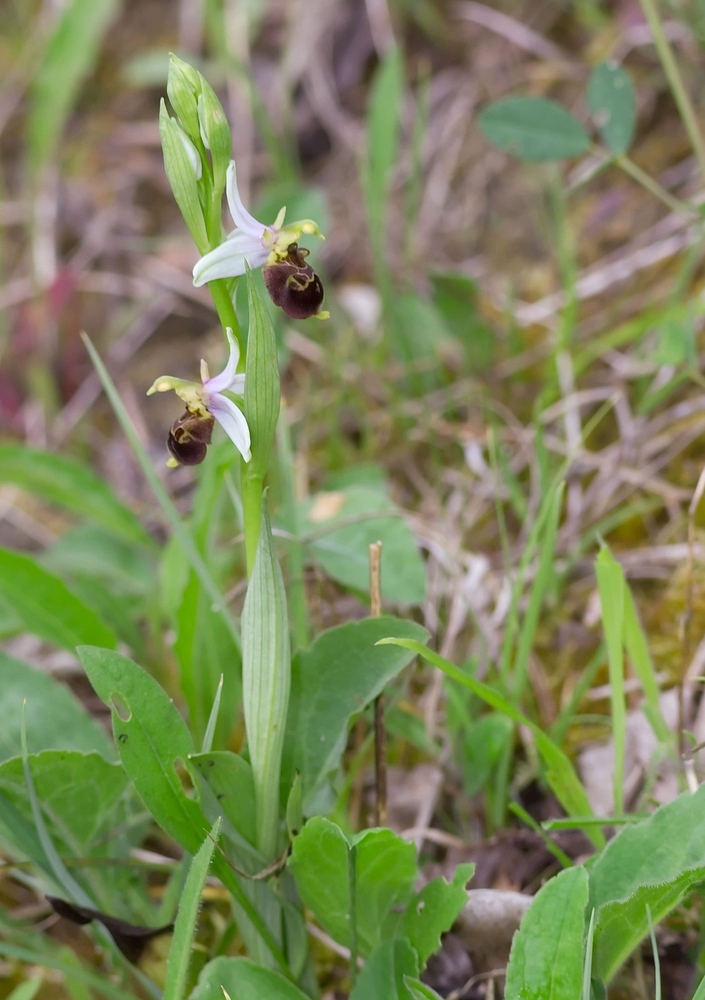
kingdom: Plantae
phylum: Tracheophyta
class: Liliopsida
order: Asparagales
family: Orchidaceae
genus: Ophrys
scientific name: Ophrys albertiana
